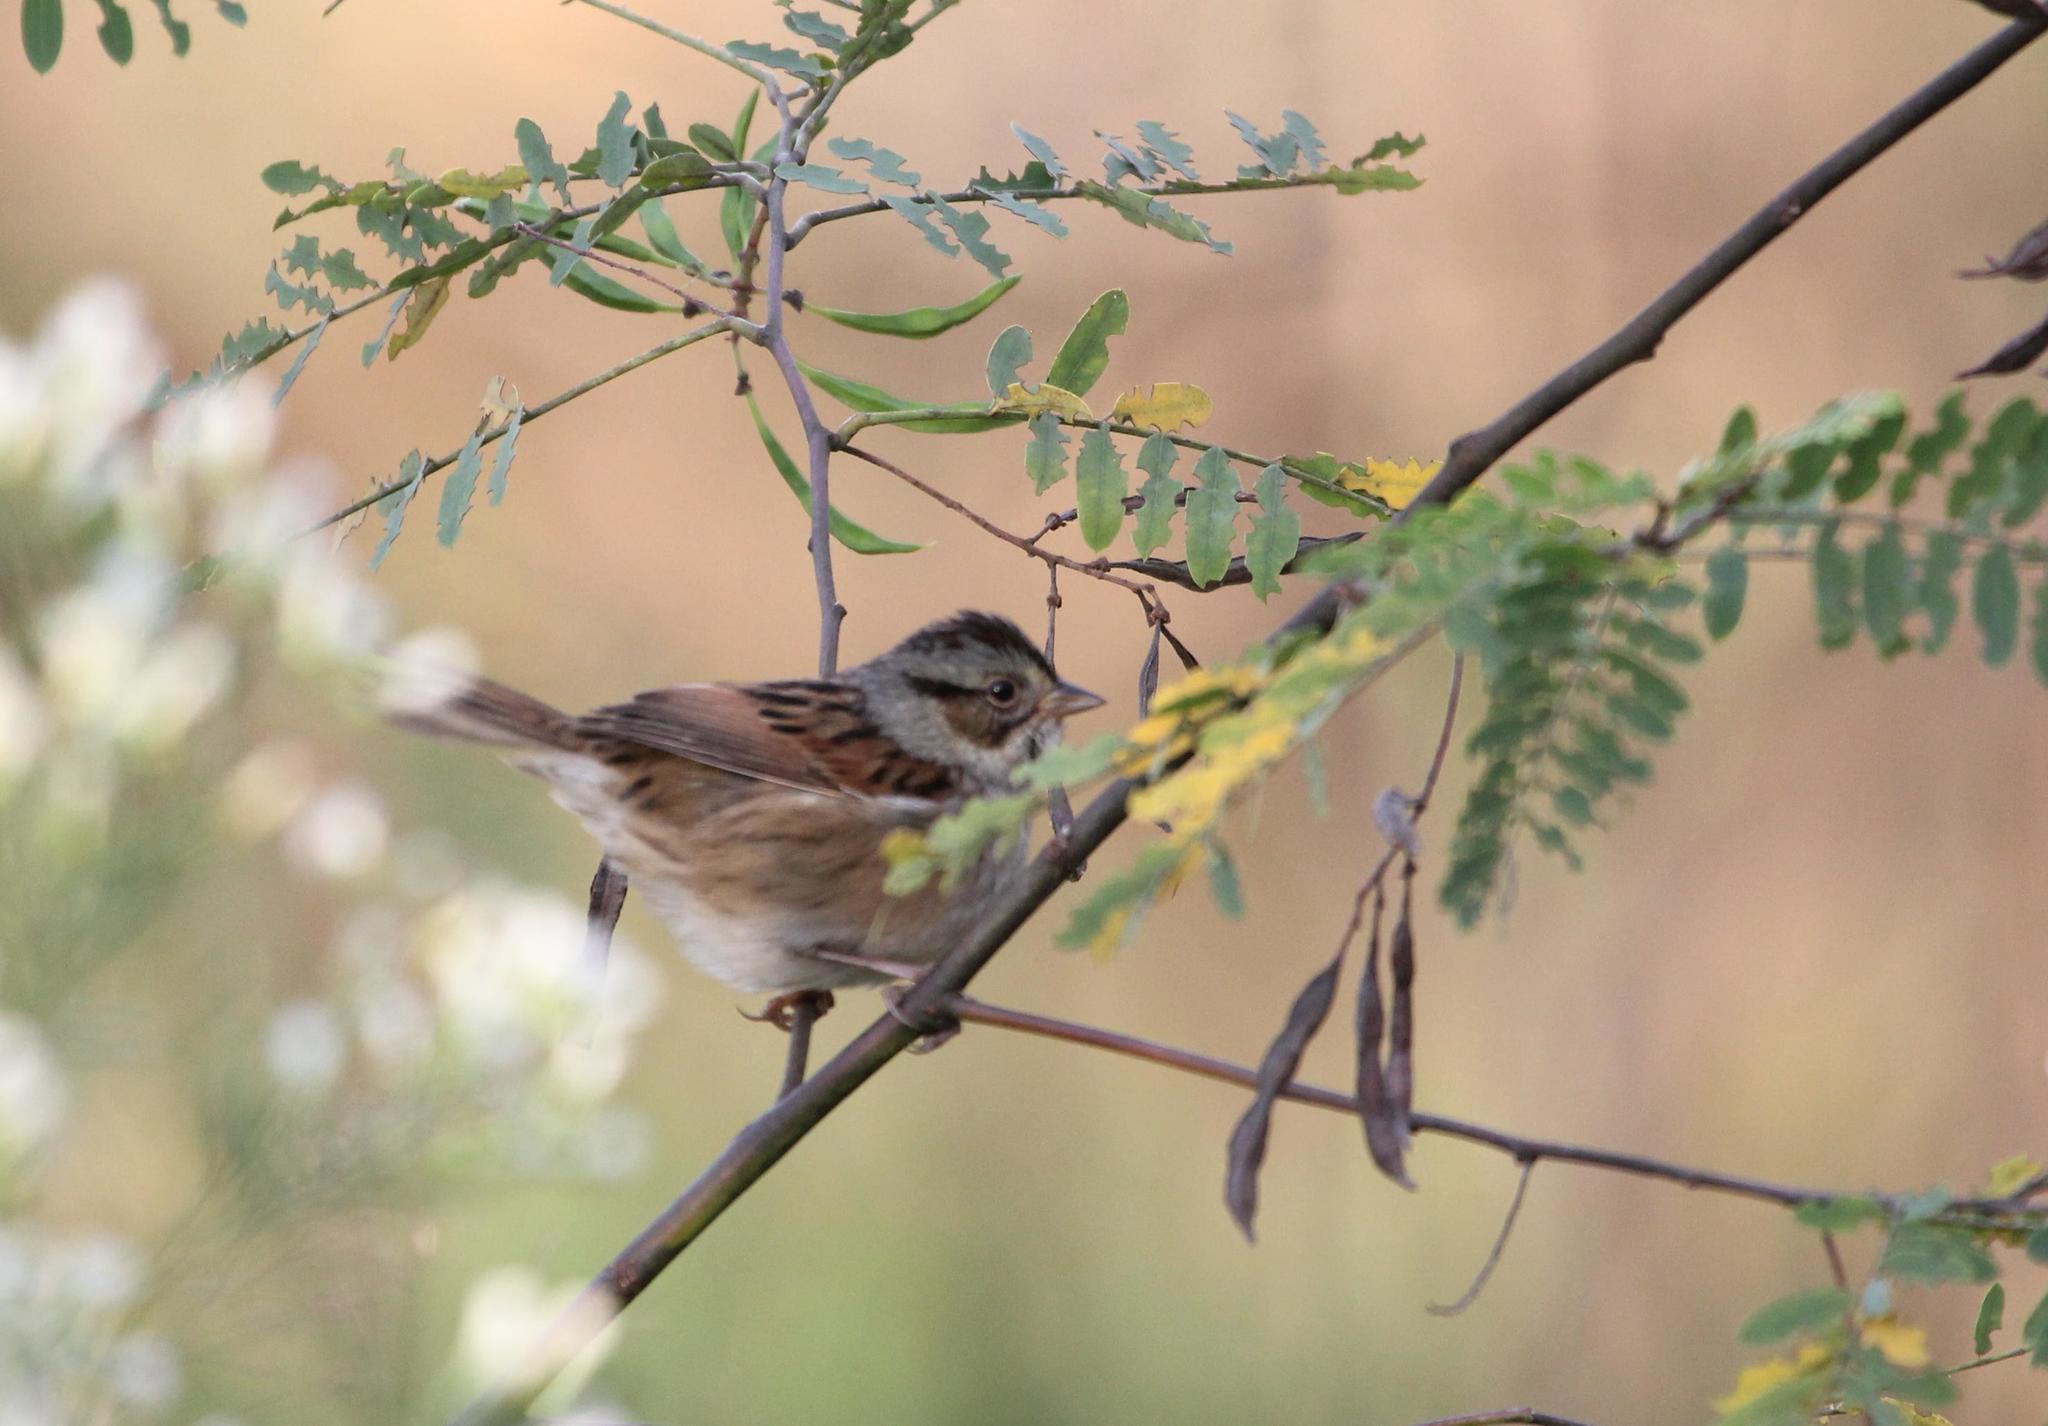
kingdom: Animalia
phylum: Chordata
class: Aves
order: Passeriformes
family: Passerellidae
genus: Melospiza
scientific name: Melospiza georgiana
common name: Swamp sparrow
